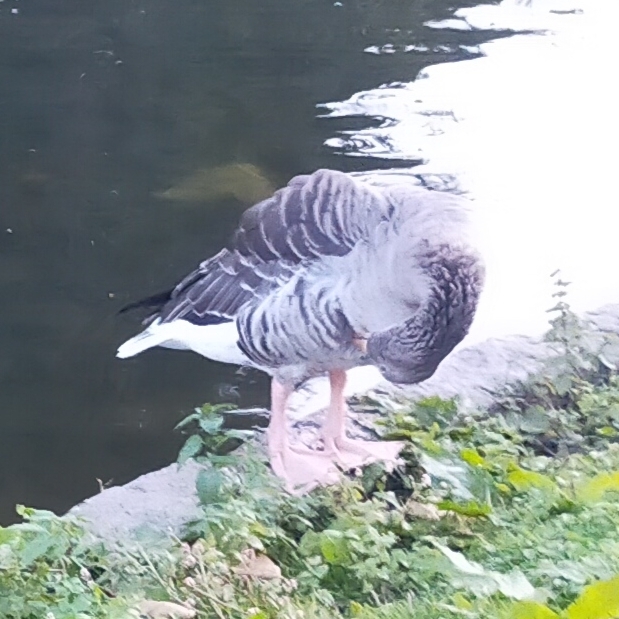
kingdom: Animalia
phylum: Chordata
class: Aves
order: Anseriformes
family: Anatidae
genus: Anser
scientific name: Anser anser
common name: Greylag goose
